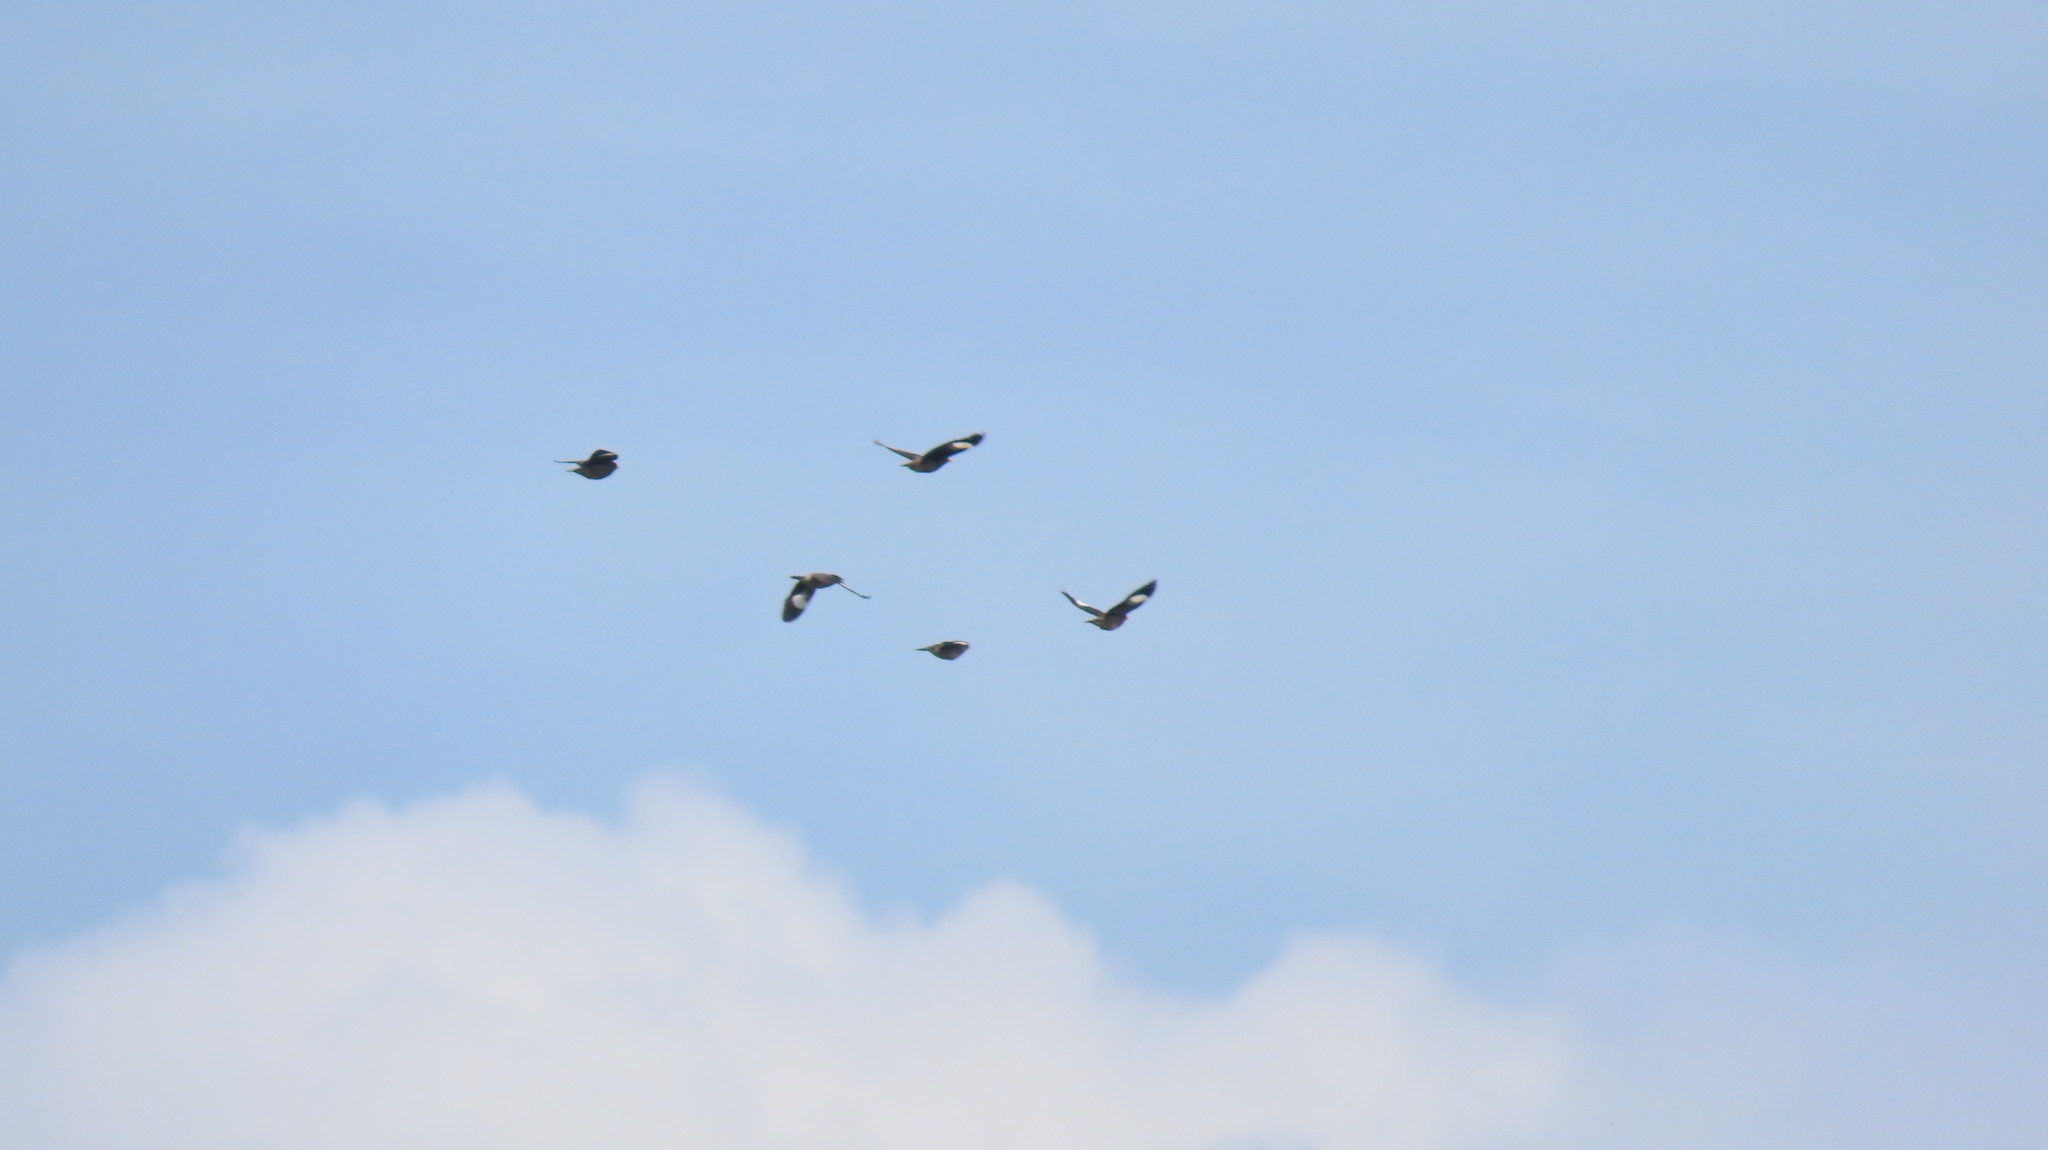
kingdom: Animalia
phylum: Chordata
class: Aves
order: Passeriformes
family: Sturnidae
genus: Acridotheres
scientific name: Acridotheres fuscus
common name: Jungle myna
